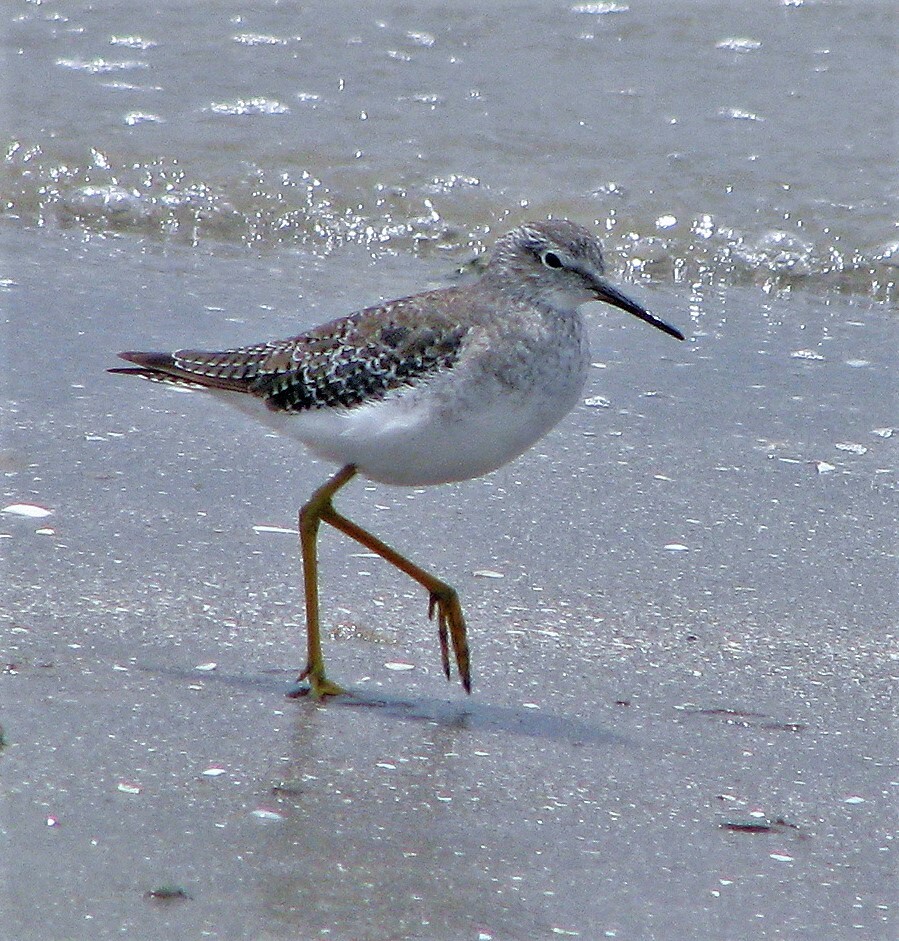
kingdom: Animalia
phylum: Chordata
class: Aves
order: Charadriiformes
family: Scolopacidae
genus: Tringa
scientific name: Tringa flavipes
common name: Lesser yellowlegs
